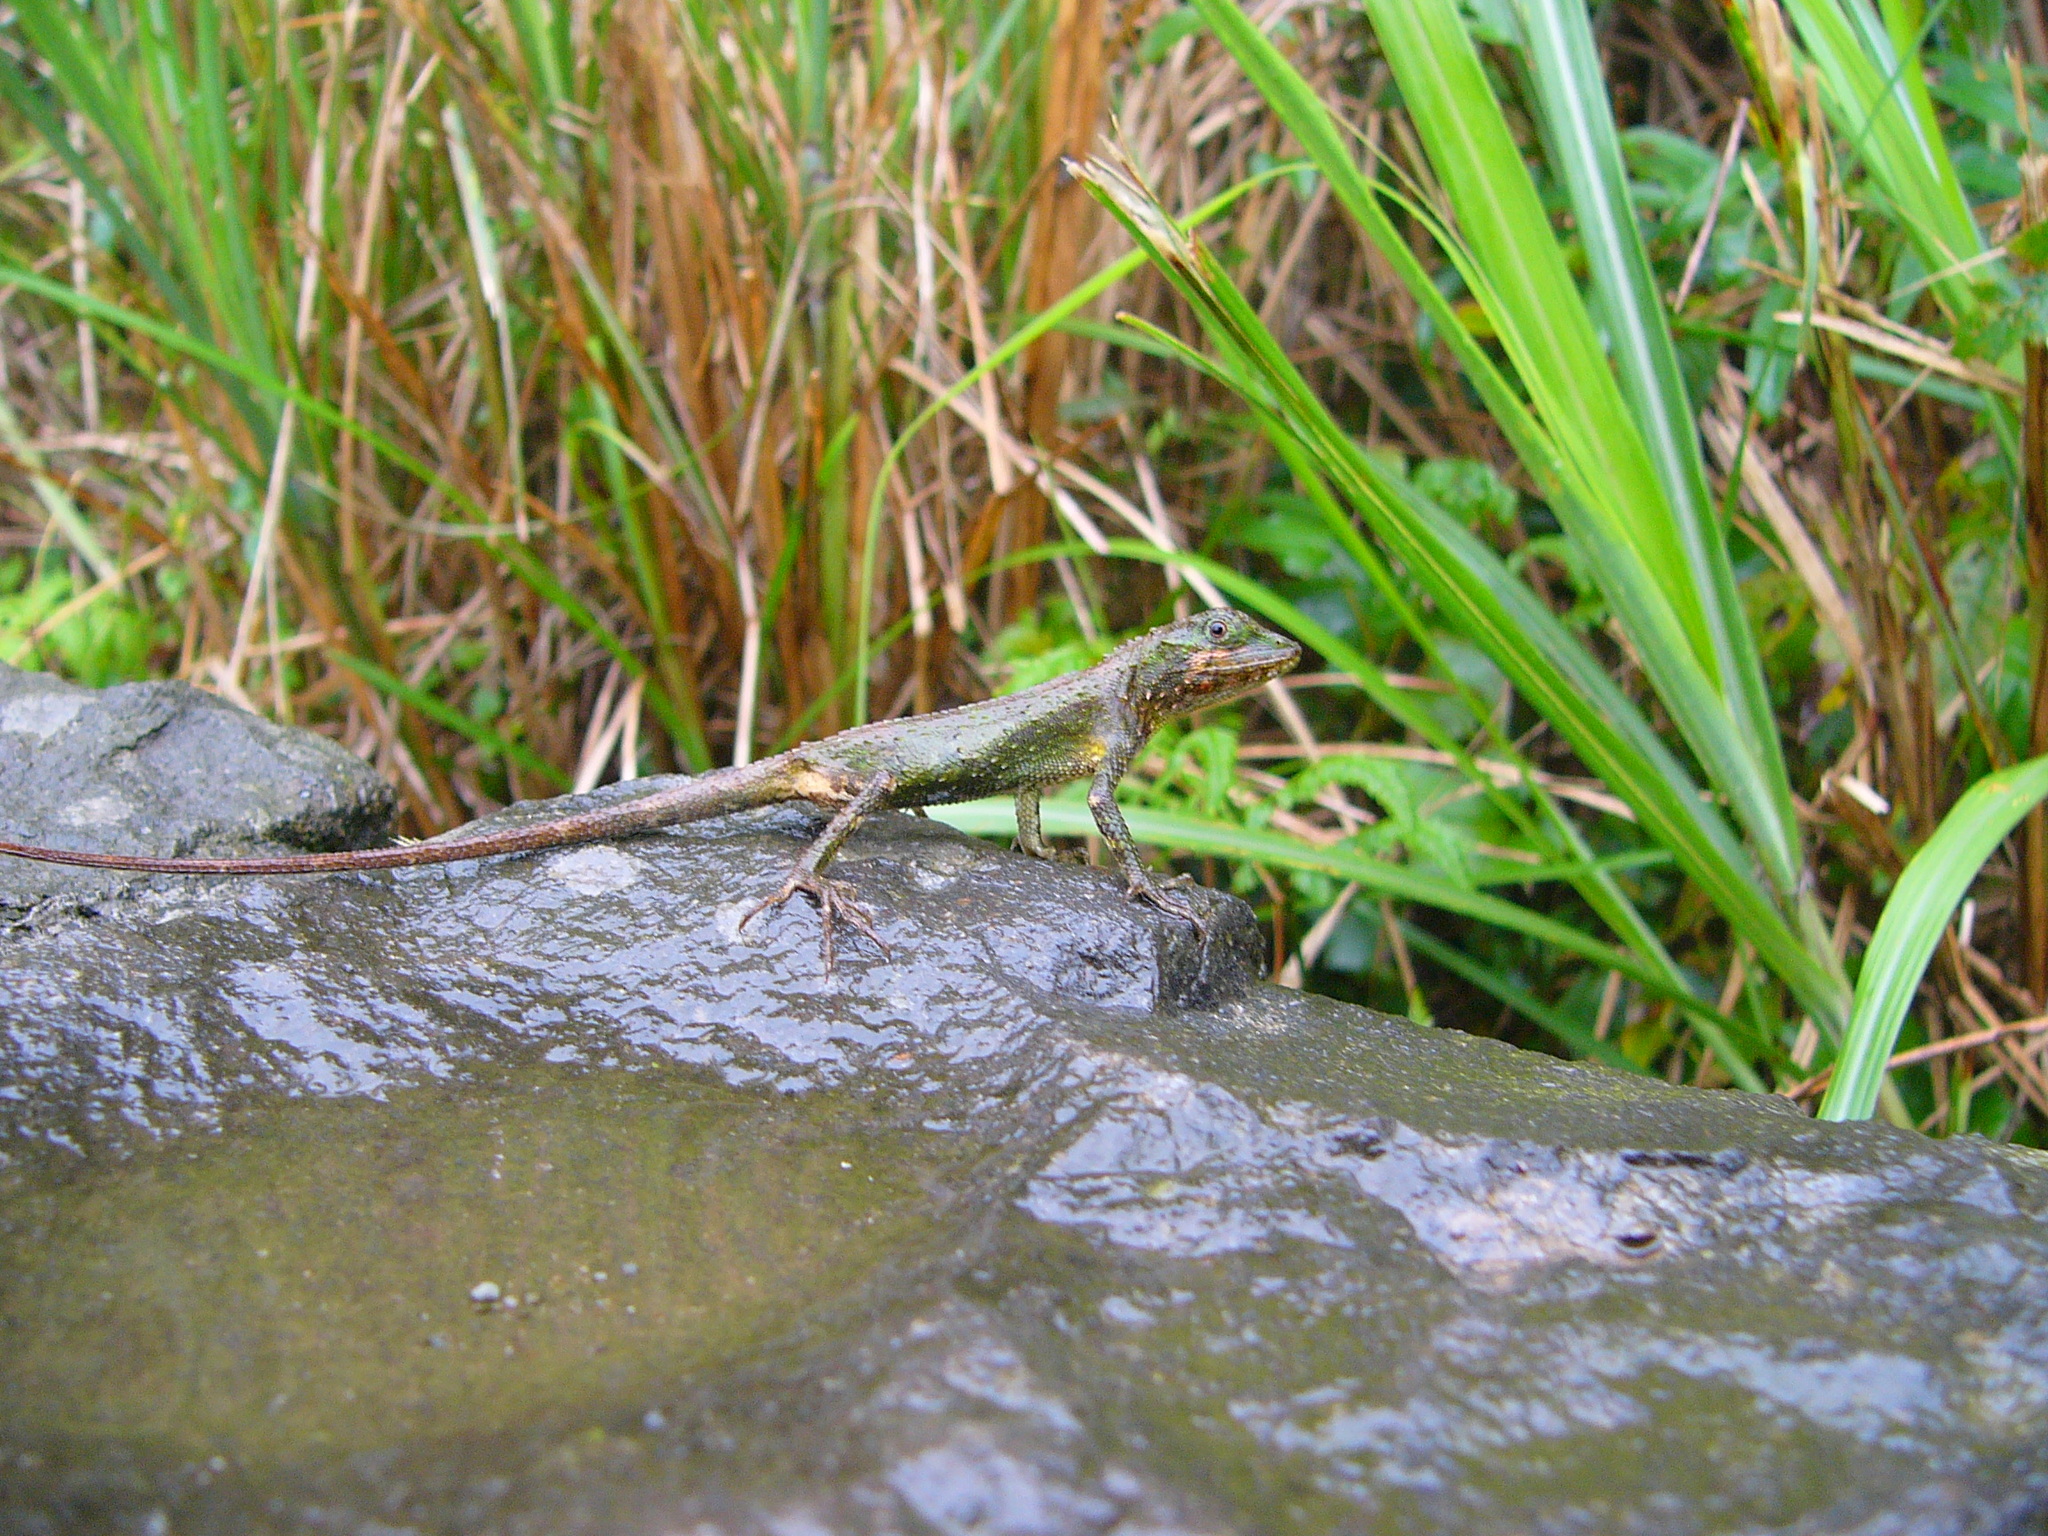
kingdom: Fungi
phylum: Basidiomycota
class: Agaricomycetes
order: Boletales
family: Diplocystidiaceae
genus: Diploderma
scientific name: Diploderma polygonatum
